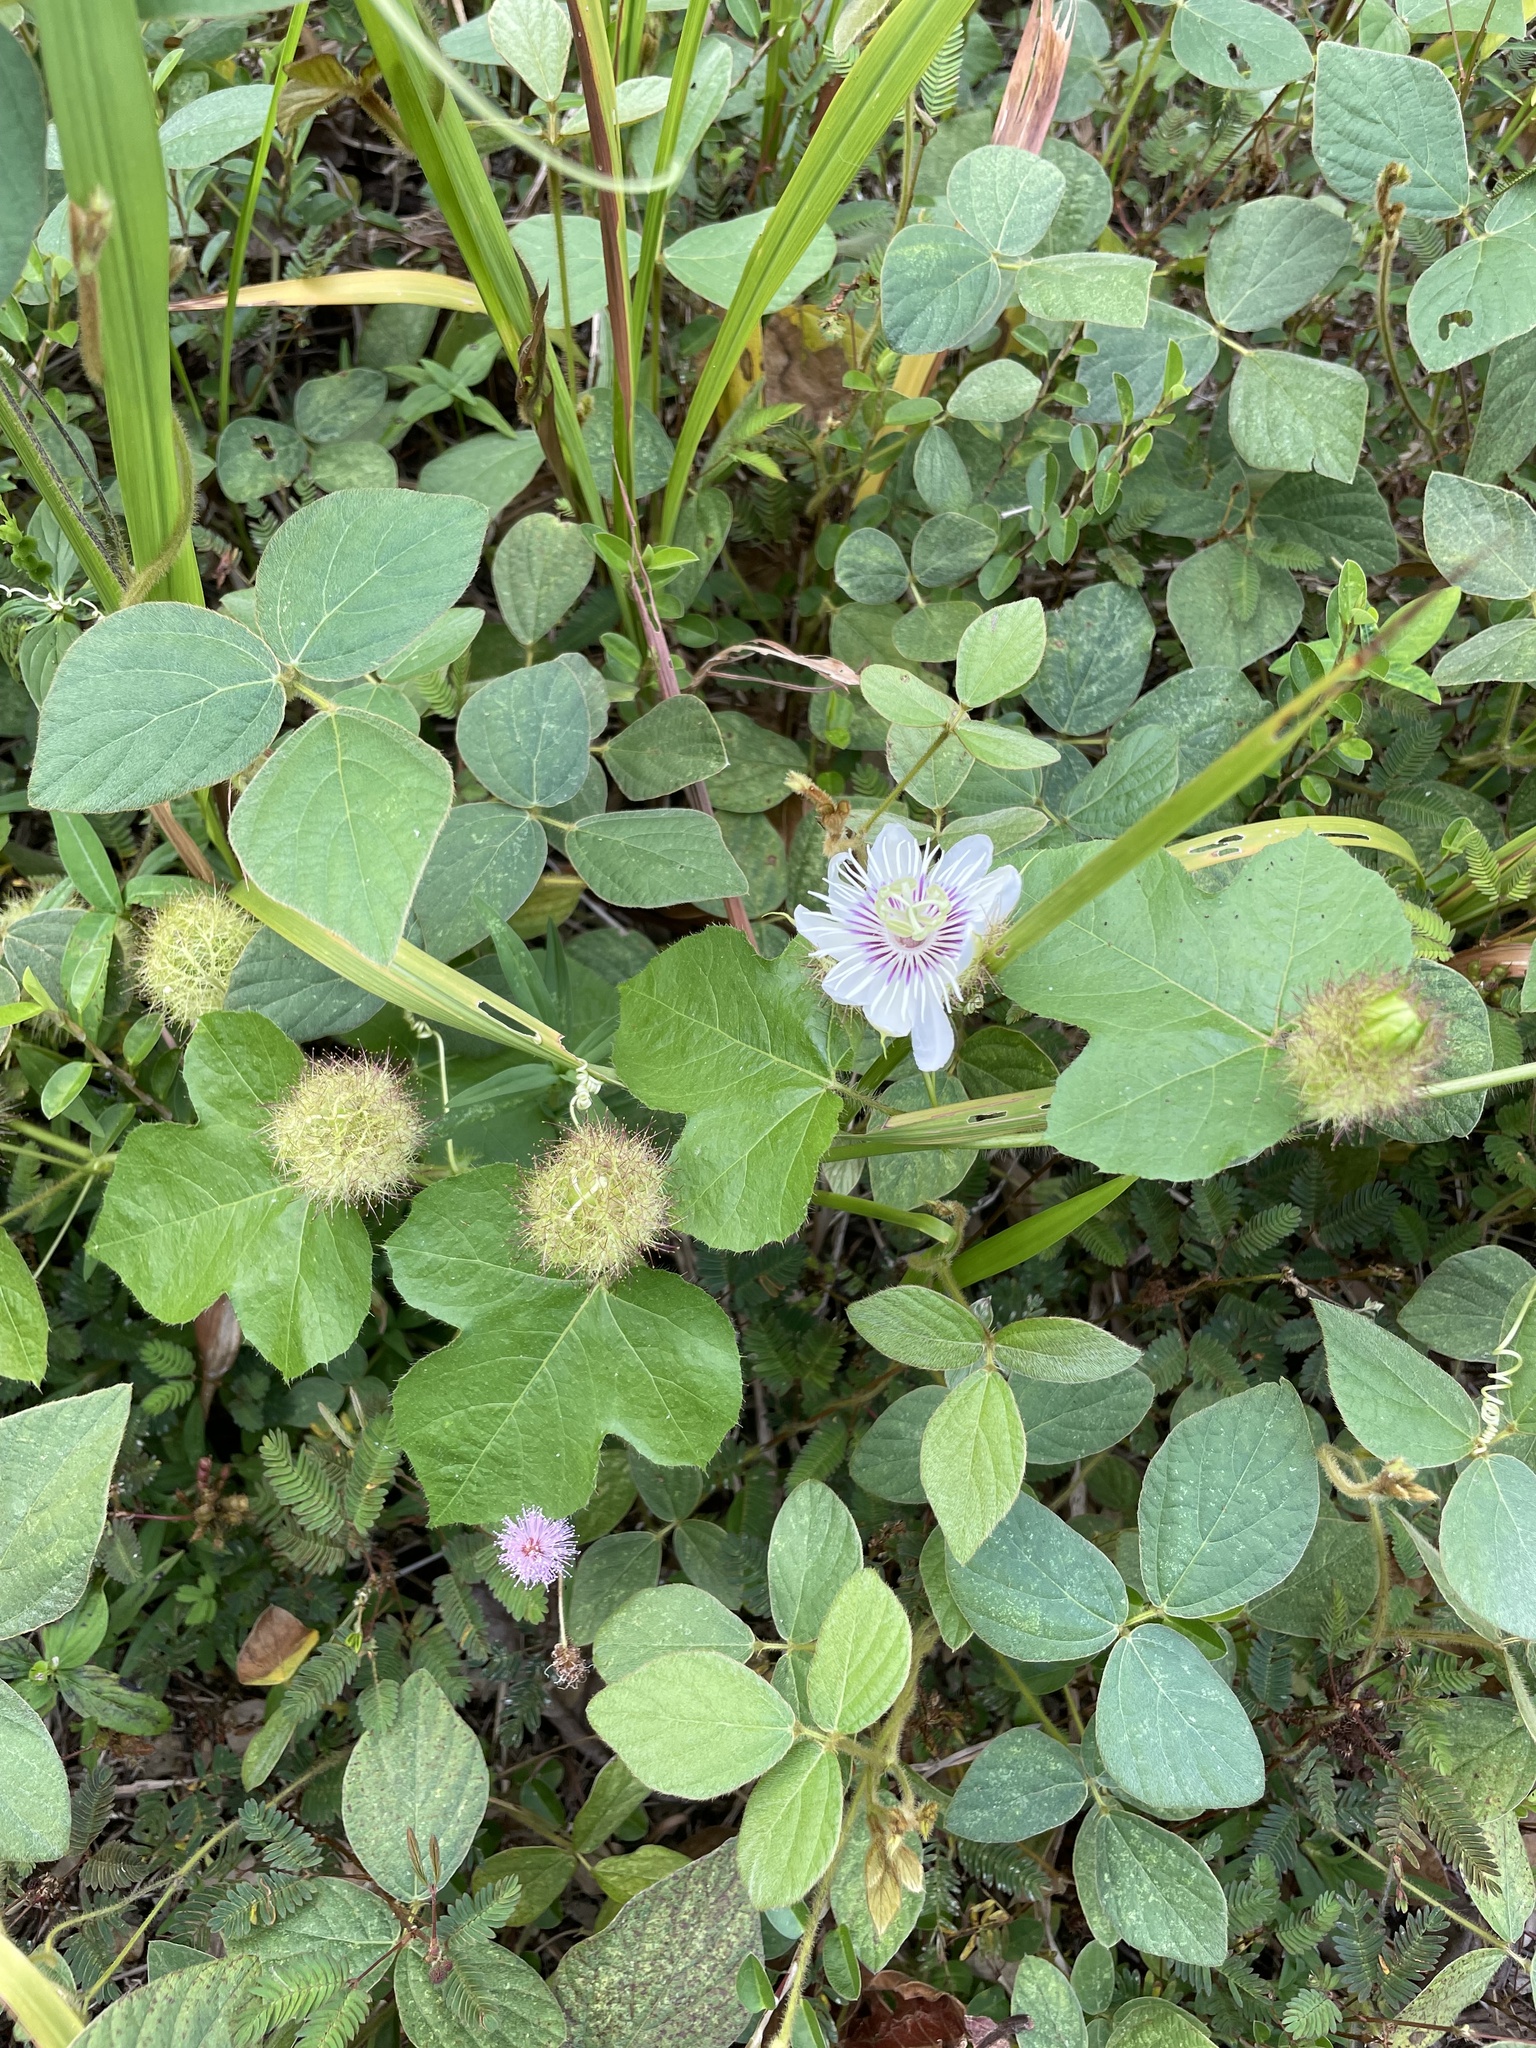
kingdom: Plantae
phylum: Tracheophyta
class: Magnoliopsida
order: Malpighiales
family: Passifloraceae
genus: Passiflora
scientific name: Passiflora vesicaria
